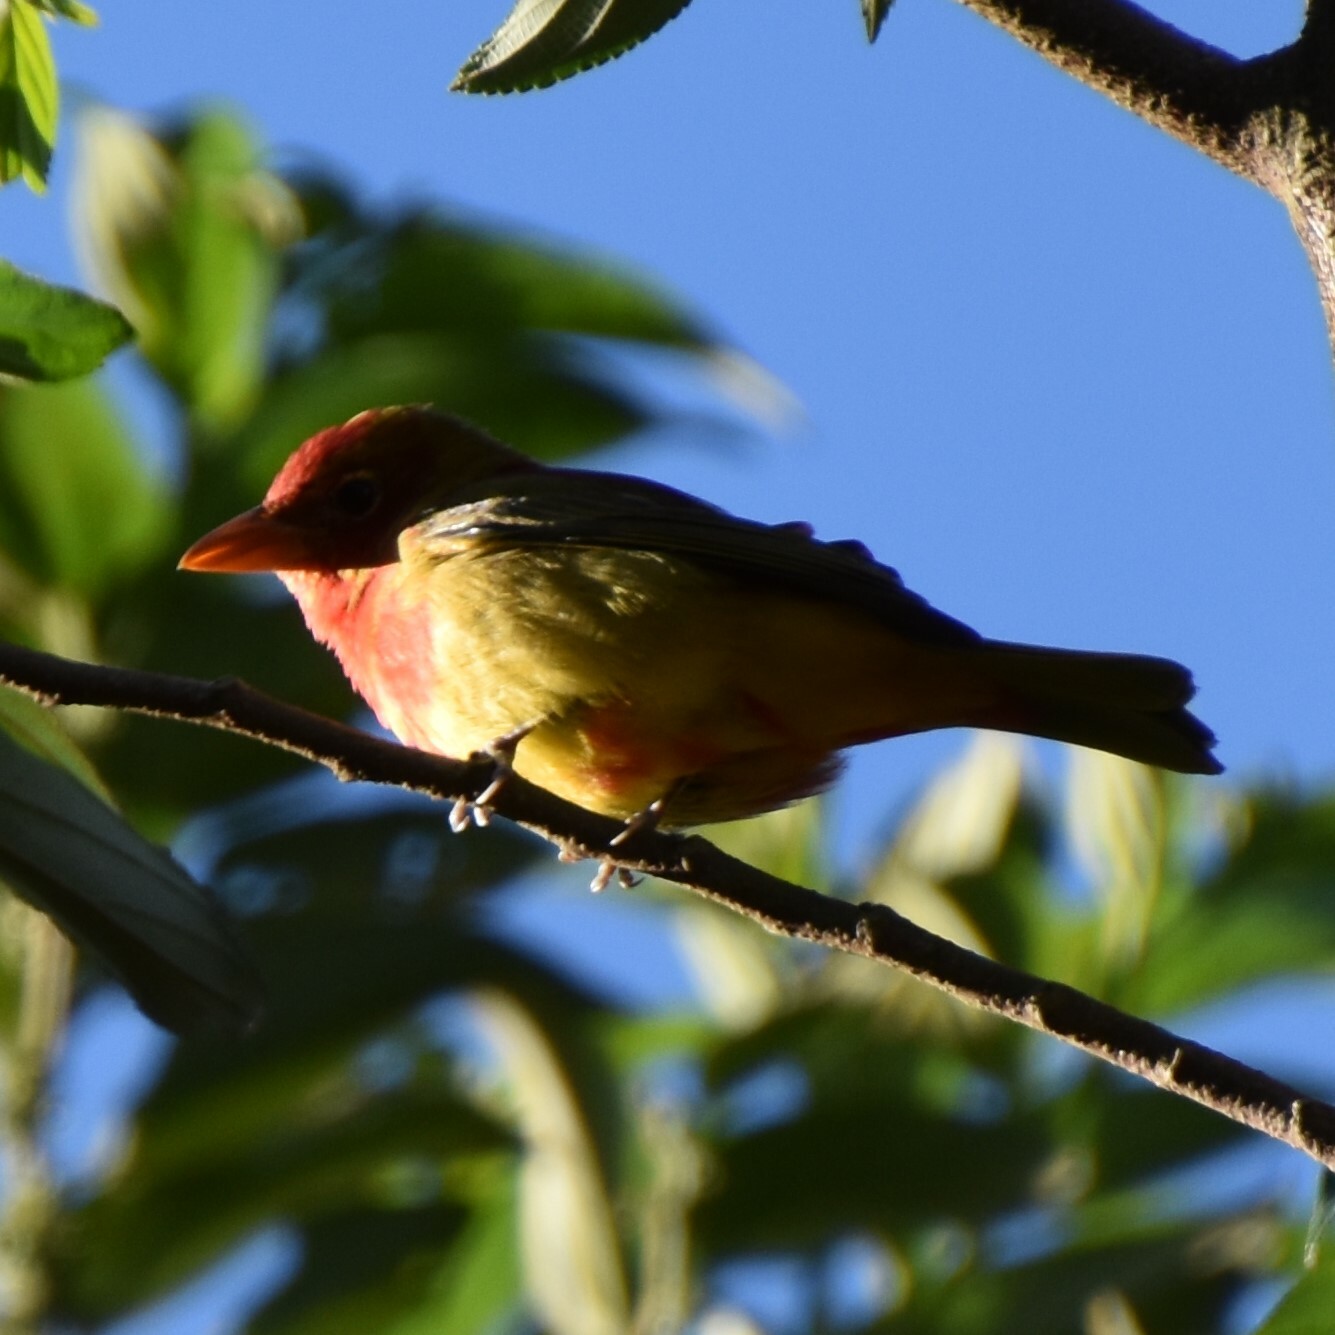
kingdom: Animalia
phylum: Chordata
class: Aves
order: Passeriformes
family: Cardinalidae
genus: Piranga
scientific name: Piranga rubra
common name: Summer tanager
